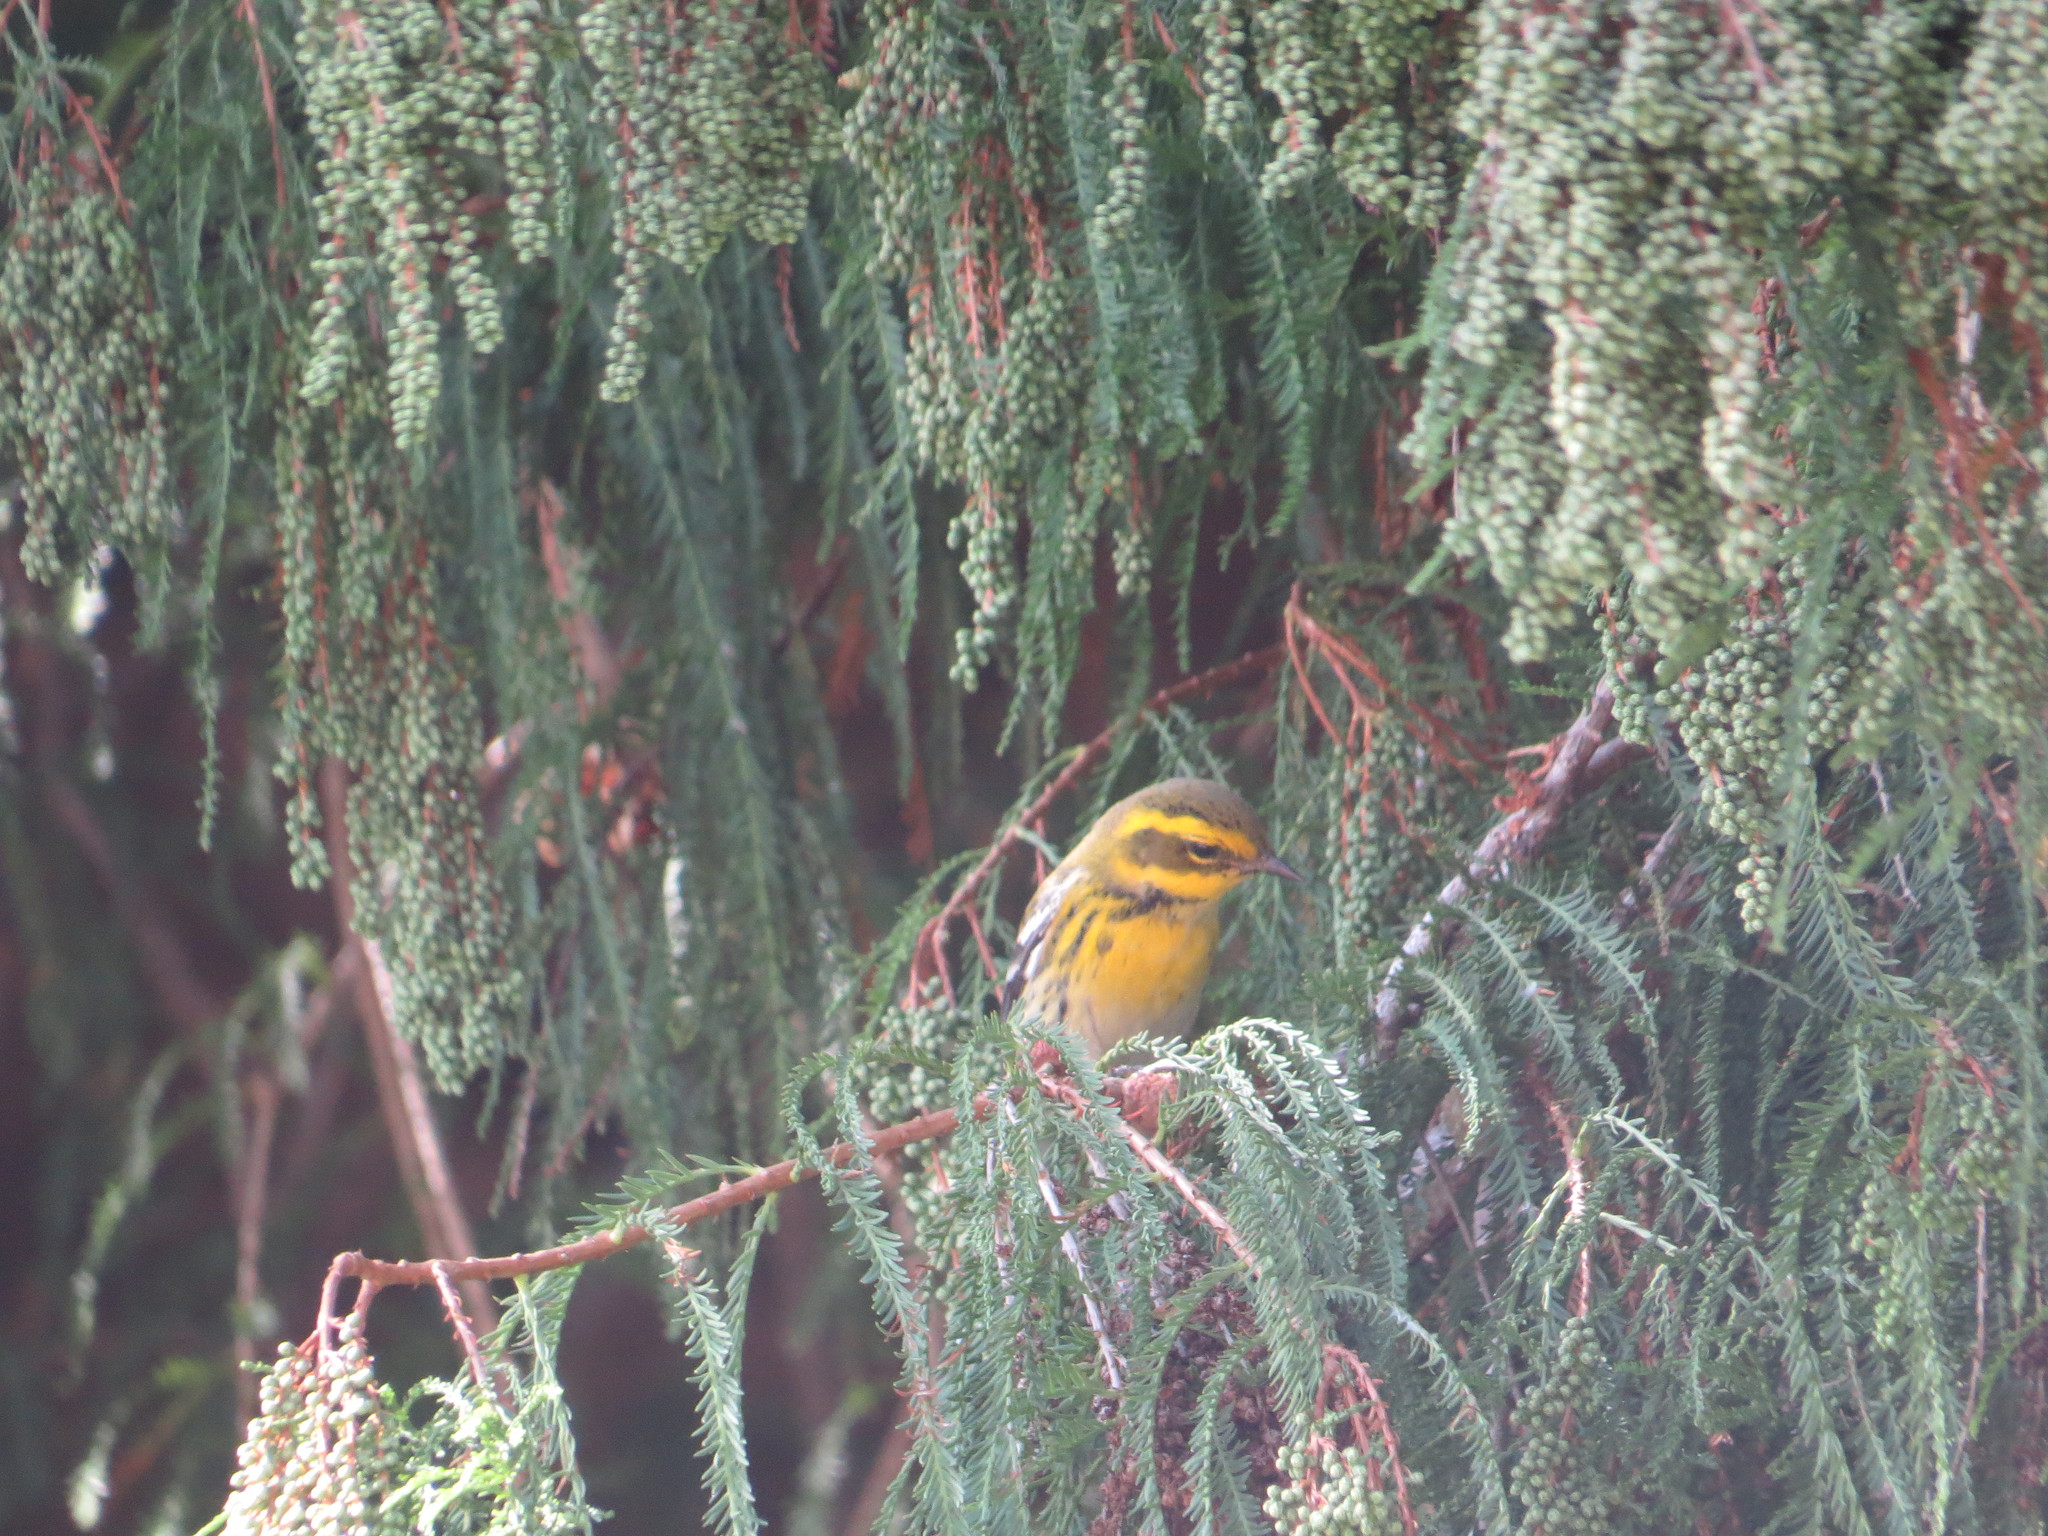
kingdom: Animalia
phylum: Chordata
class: Aves
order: Passeriformes
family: Parulidae
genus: Setophaga
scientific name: Setophaga townsendi
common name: Townsend's warbler
